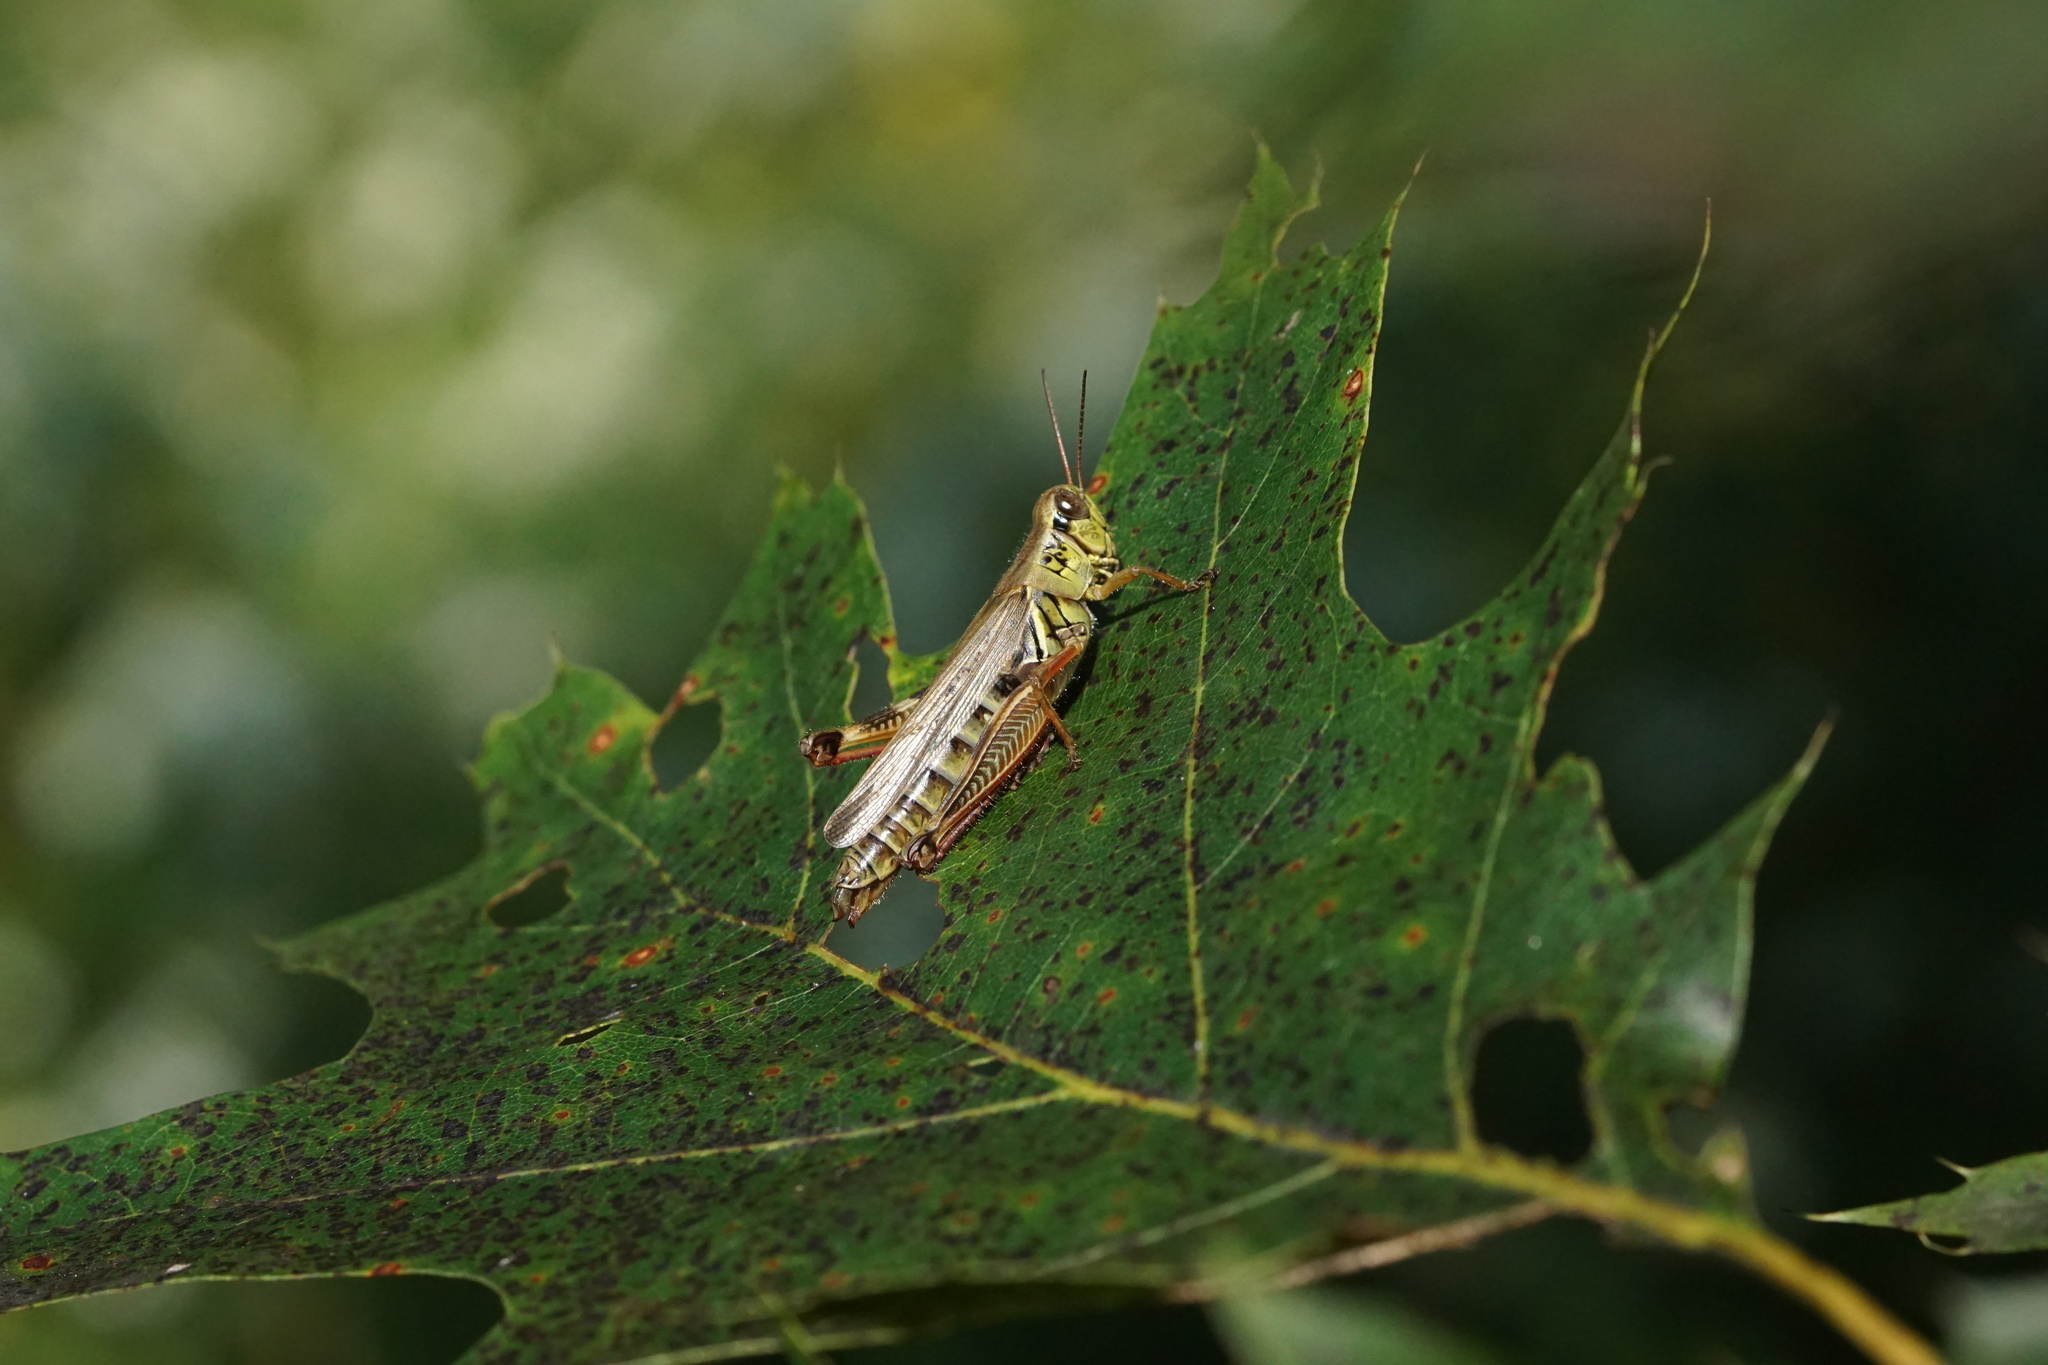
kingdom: Animalia
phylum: Arthropoda
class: Insecta
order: Orthoptera
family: Acrididae
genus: Melanoplus
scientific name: Melanoplus femurrubrum
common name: Red-legged grasshopper
